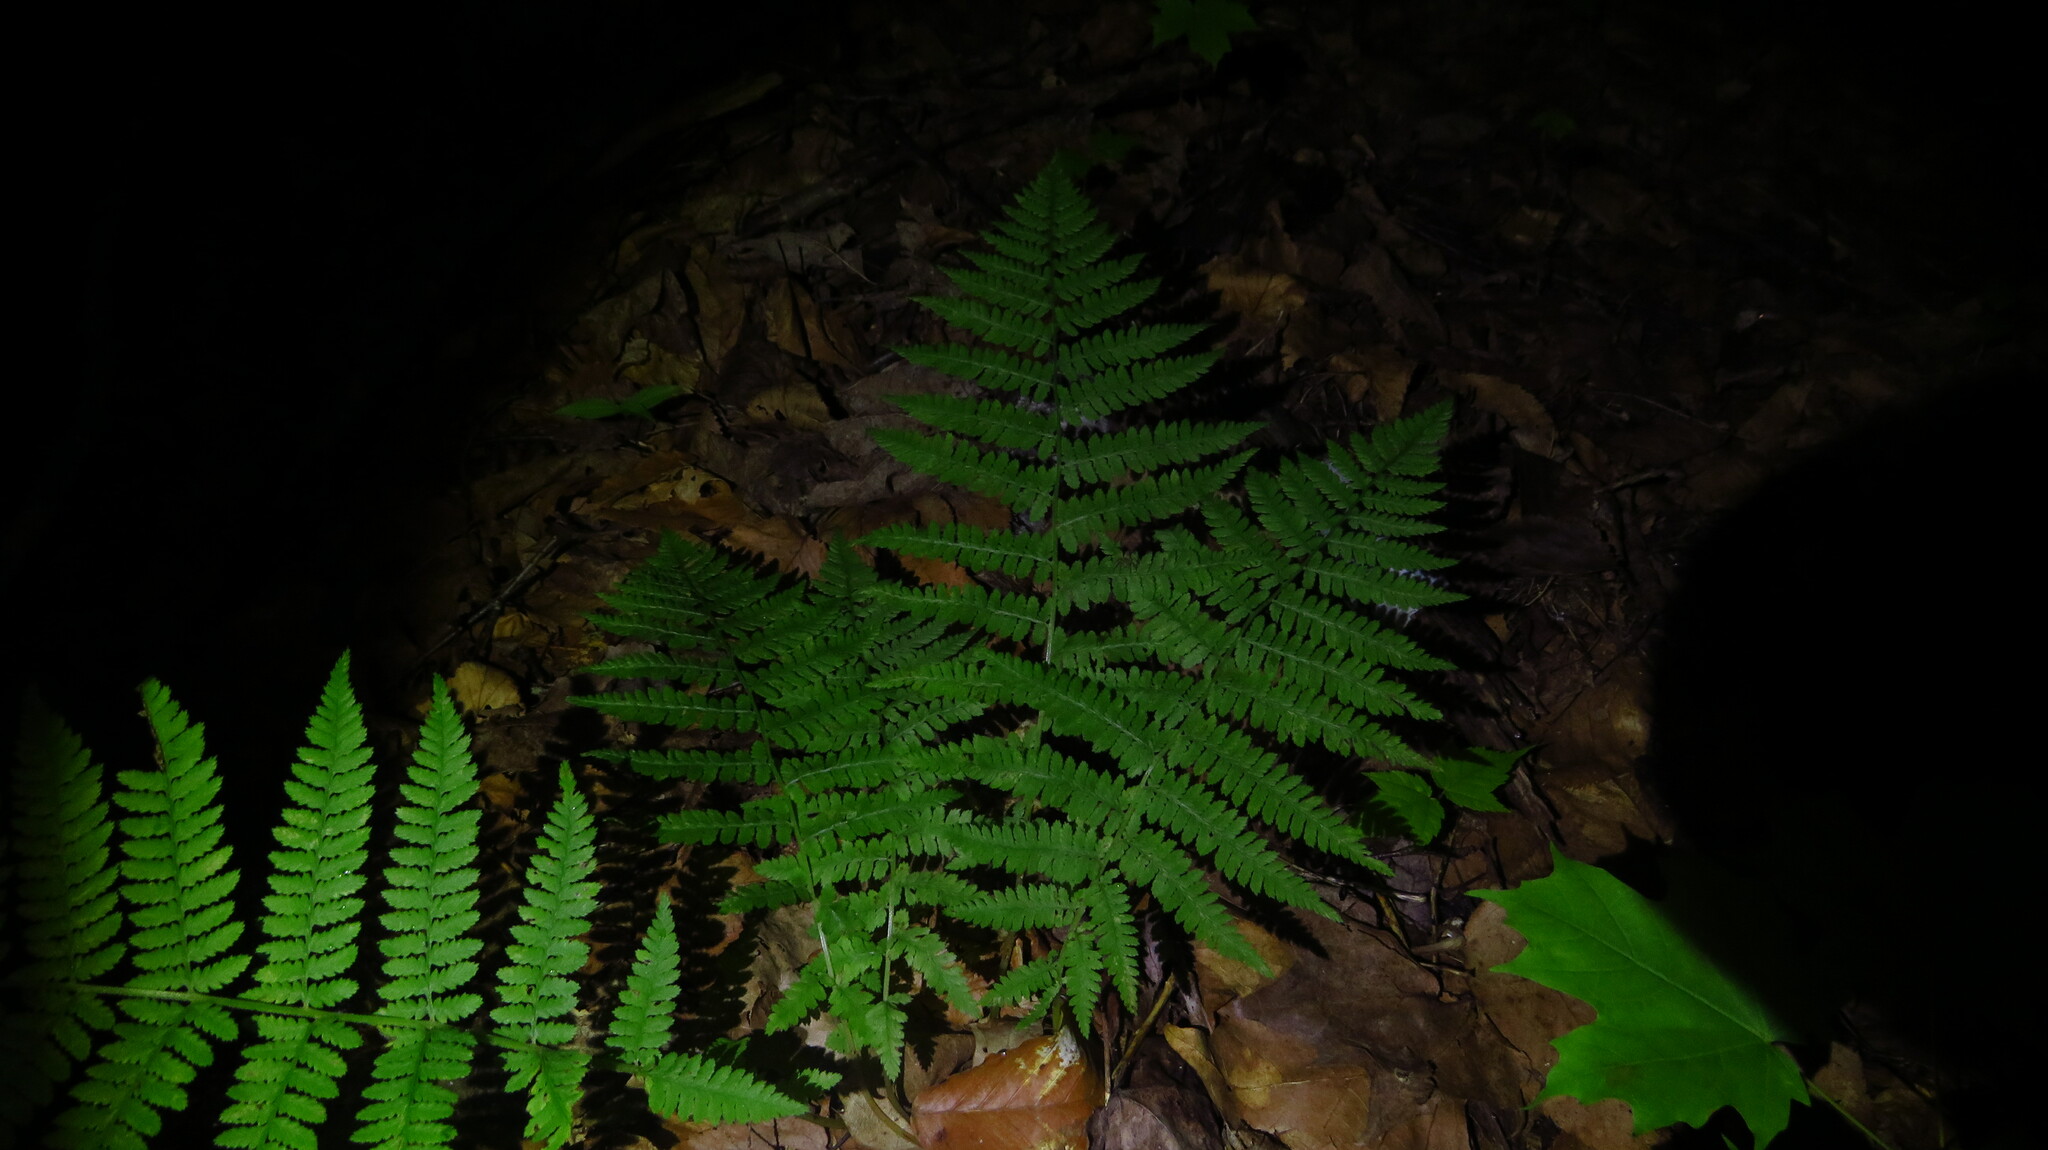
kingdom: Plantae
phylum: Tracheophyta
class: Polypodiopsida
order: Polypodiales
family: Athyriaceae
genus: Athyrium
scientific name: Athyrium angustum
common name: Northern lady fern
